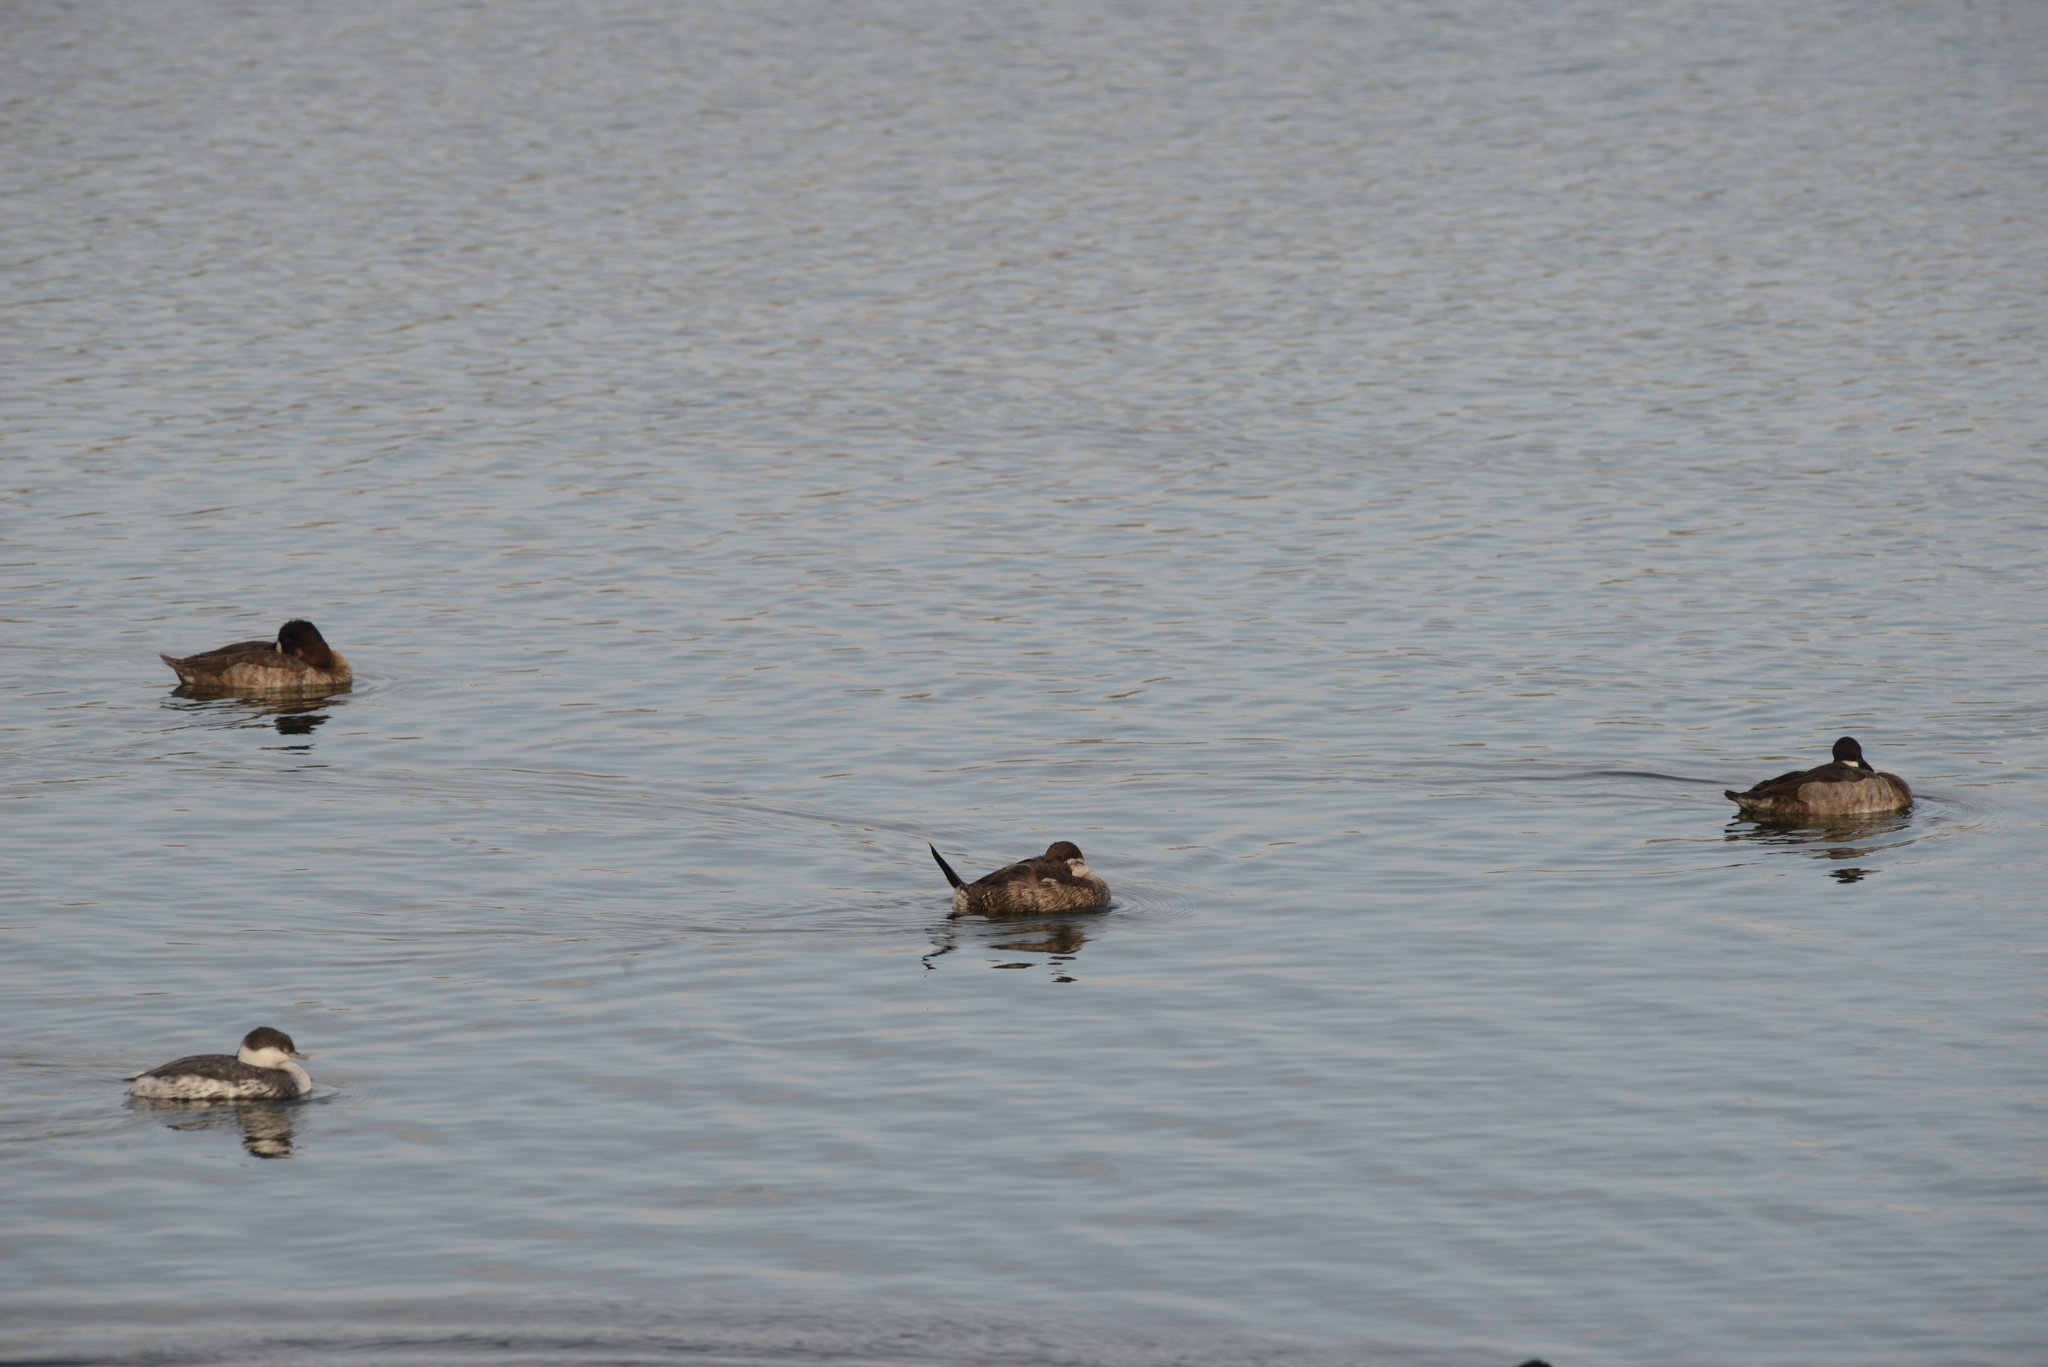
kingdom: Animalia
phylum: Chordata
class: Aves
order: Anseriformes
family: Anatidae
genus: Oxyura
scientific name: Oxyura jamaicensis
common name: Ruddy duck
